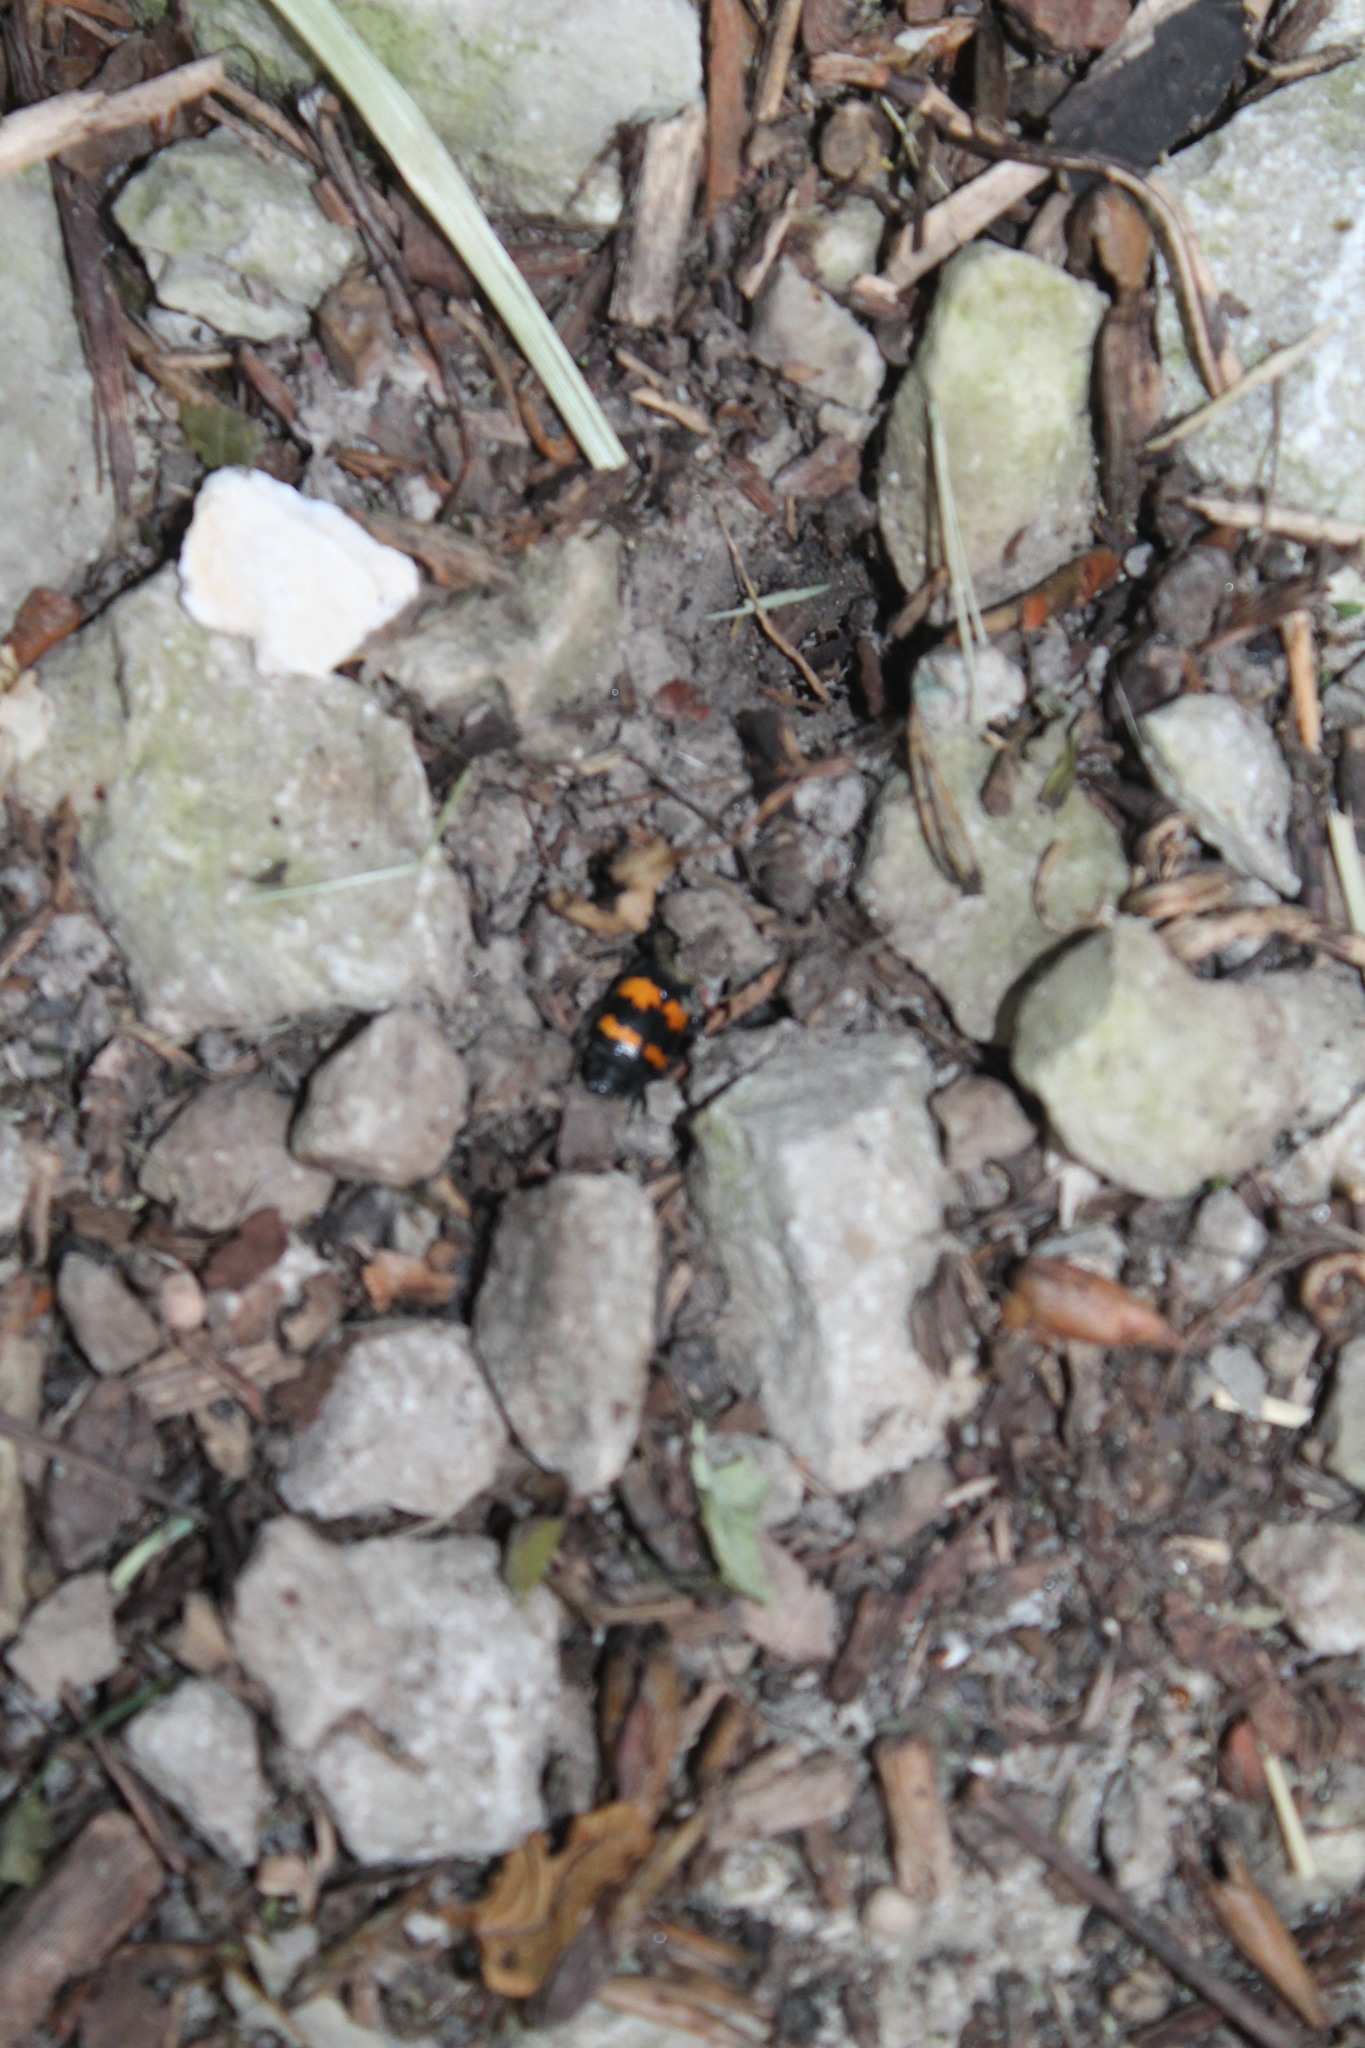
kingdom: Animalia
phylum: Arthropoda
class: Insecta
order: Coleoptera
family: Staphylinidae
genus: Nicrophorus
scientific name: Nicrophorus tomentosus
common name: Tomentose burying beetle
